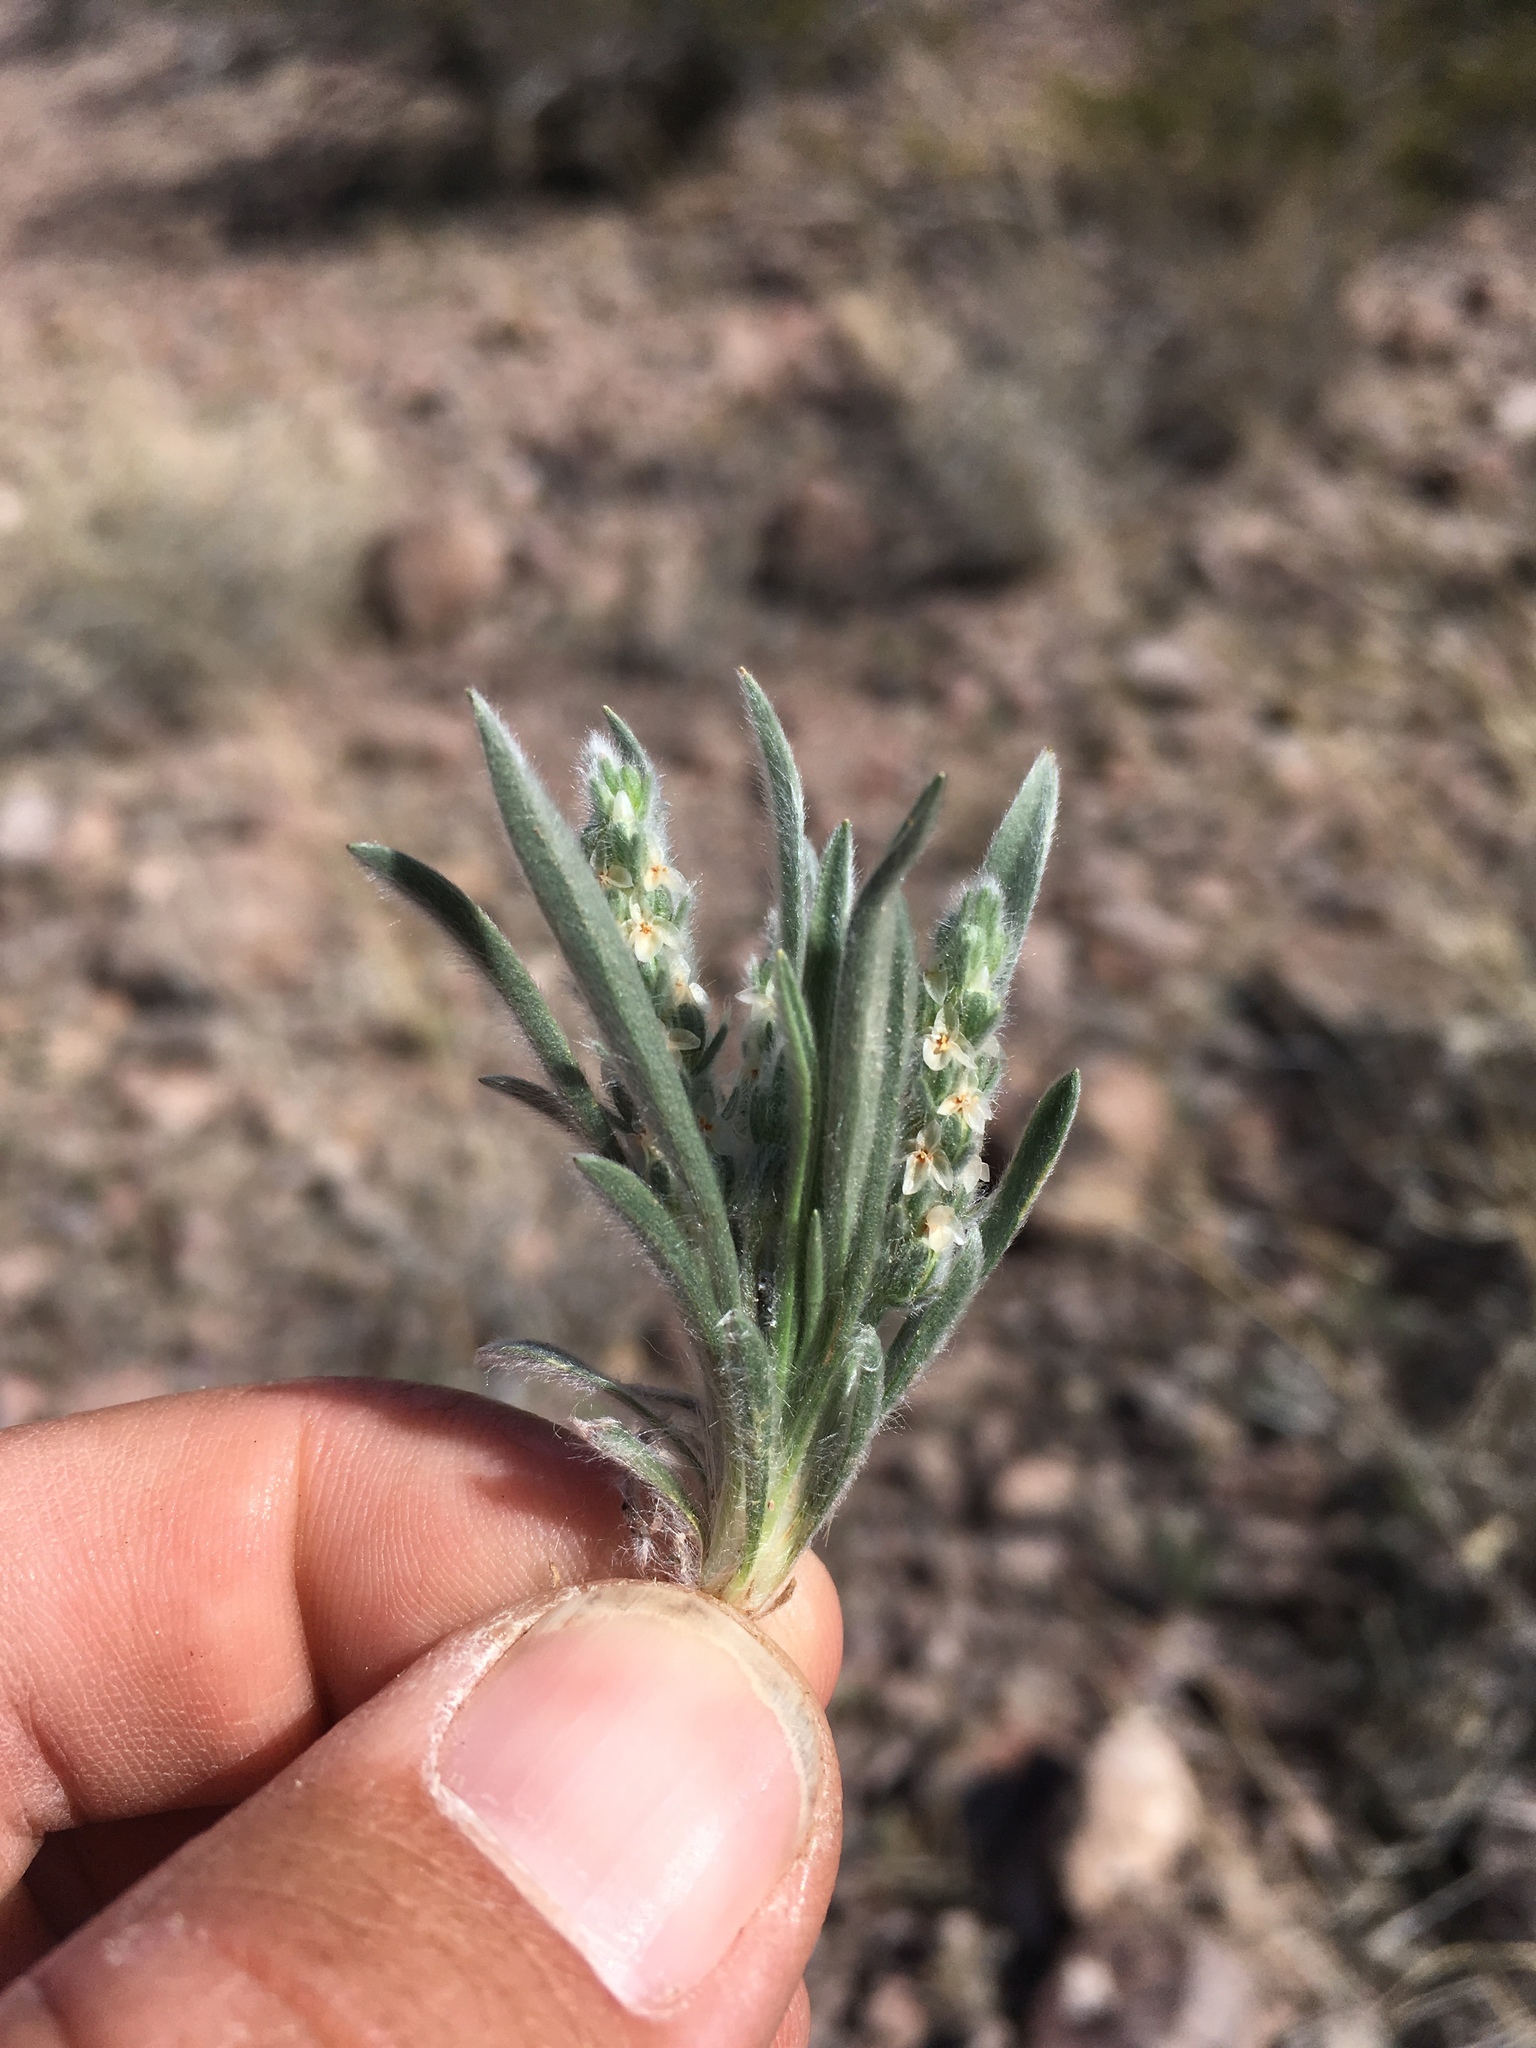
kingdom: Plantae
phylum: Tracheophyta
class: Magnoliopsida
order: Lamiales
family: Plantaginaceae
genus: Plantago
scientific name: Plantago patagonica
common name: Patagonia indian-wheat
